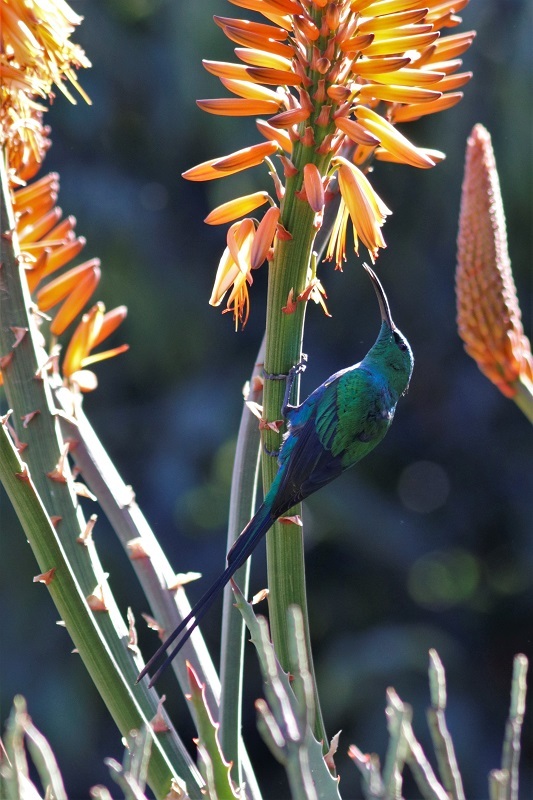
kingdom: Animalia
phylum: Chordata
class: Aves
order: Passeriformes
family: Nectariniidae
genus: Nectarinia
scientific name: Nectarinia famosa
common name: Malachite sunbird
